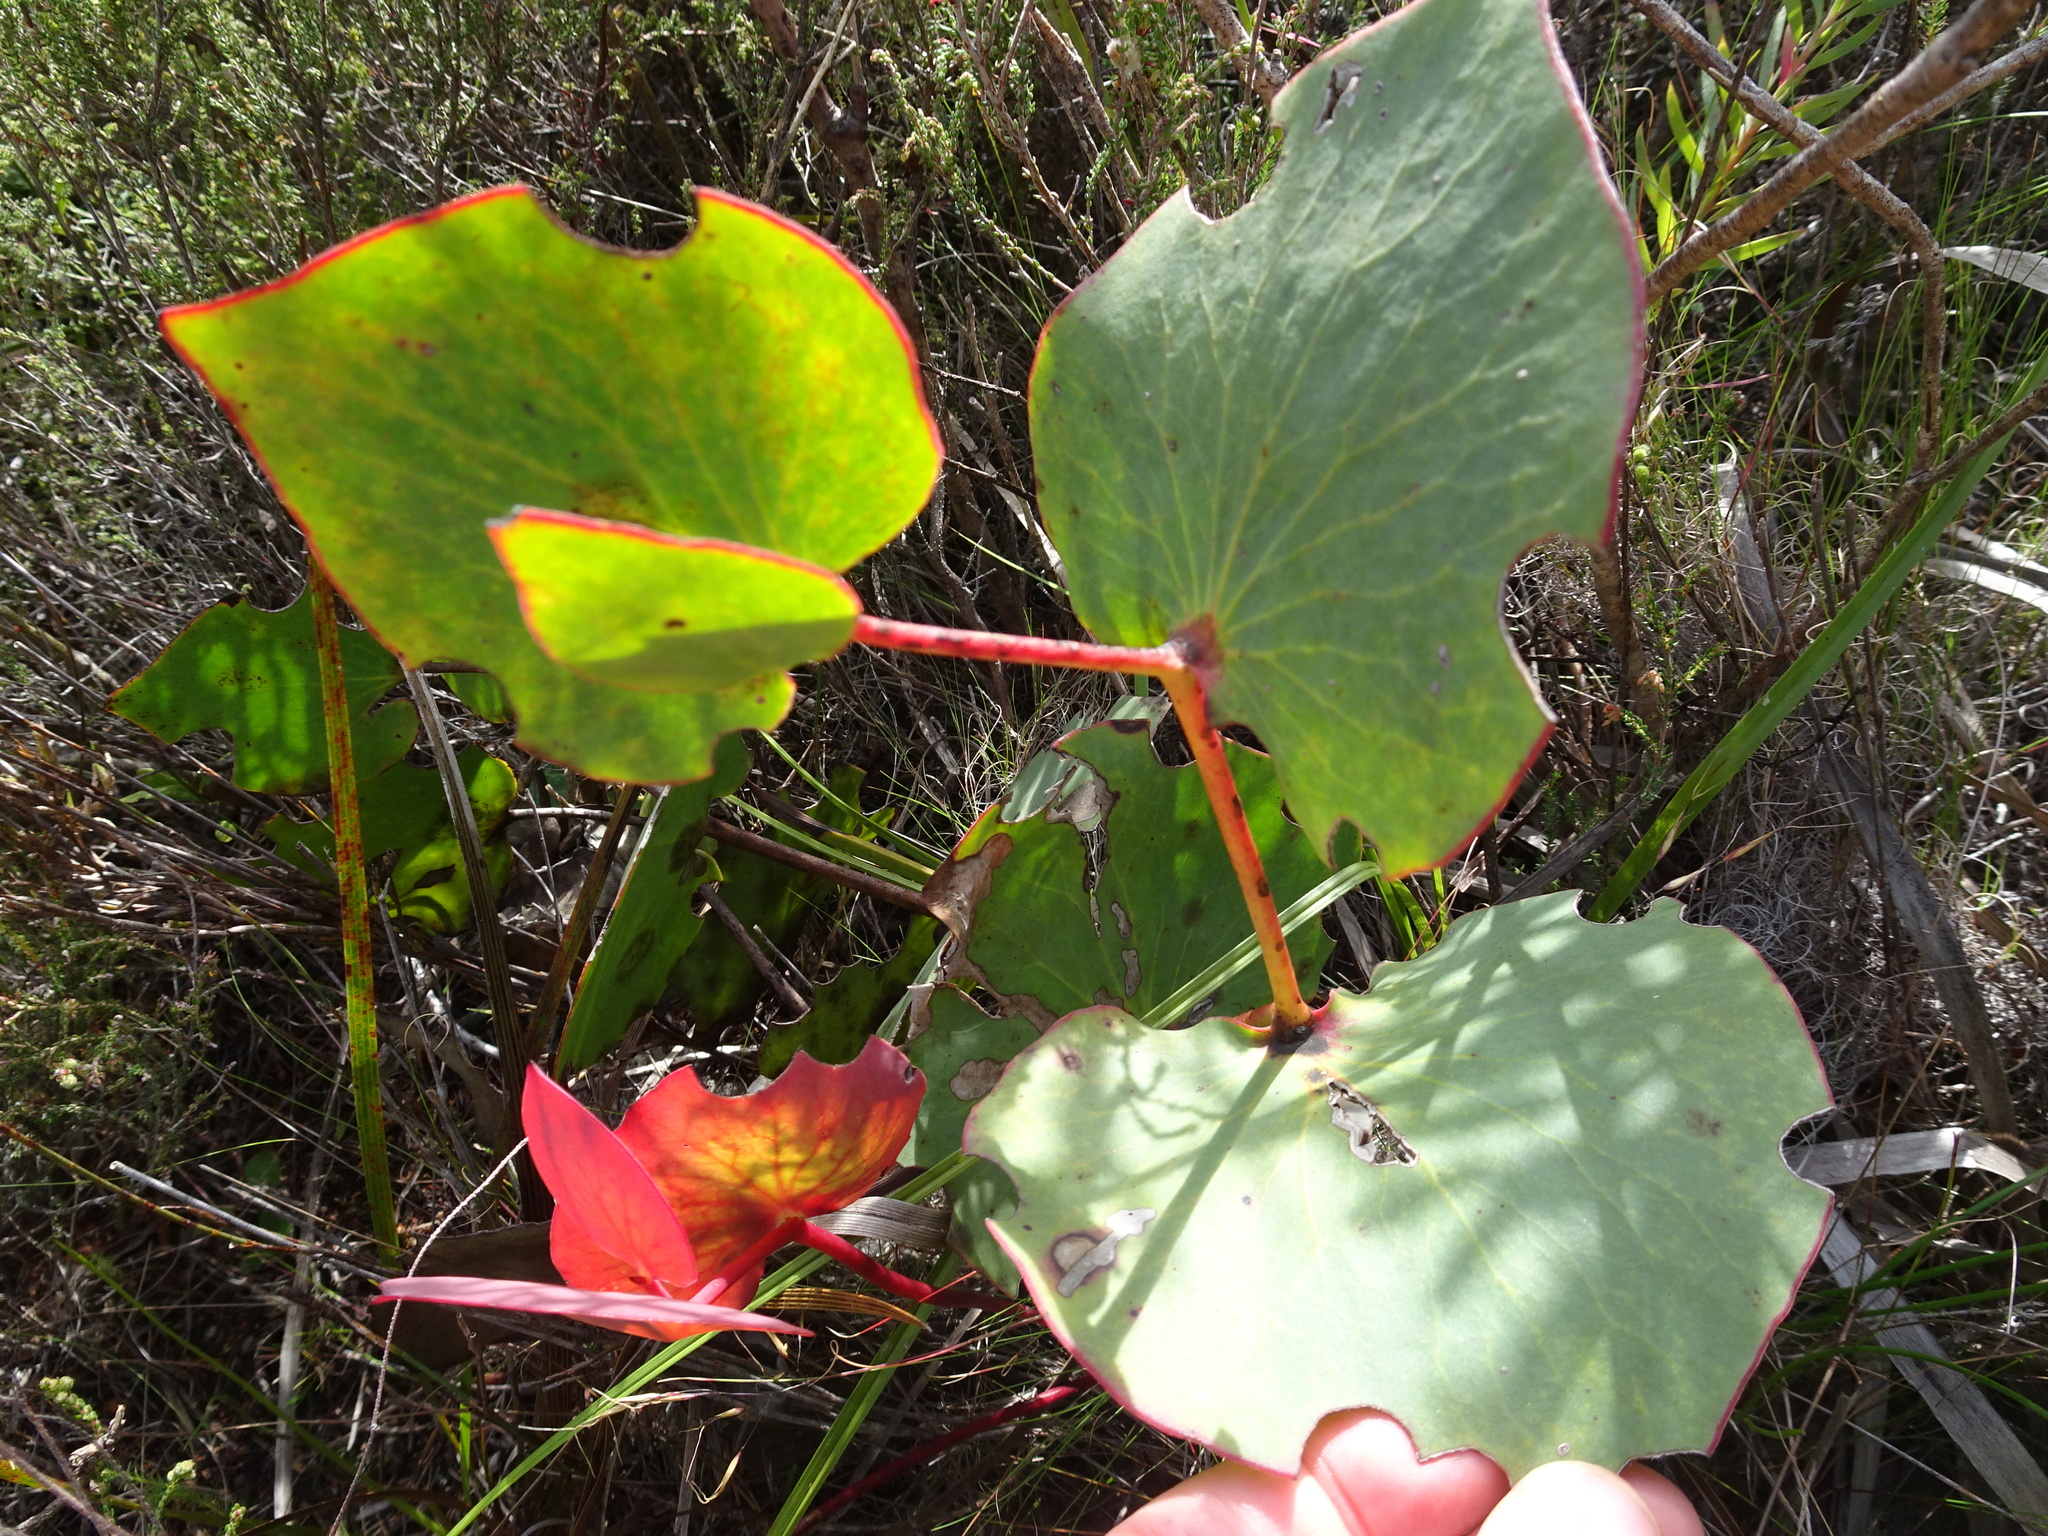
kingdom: Plantae
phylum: Tracheophyta
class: Magnoliopsida
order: Proteales
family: Proteaceae
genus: Protea
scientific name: Protea cordata
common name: Heart-leaf sugarbush
